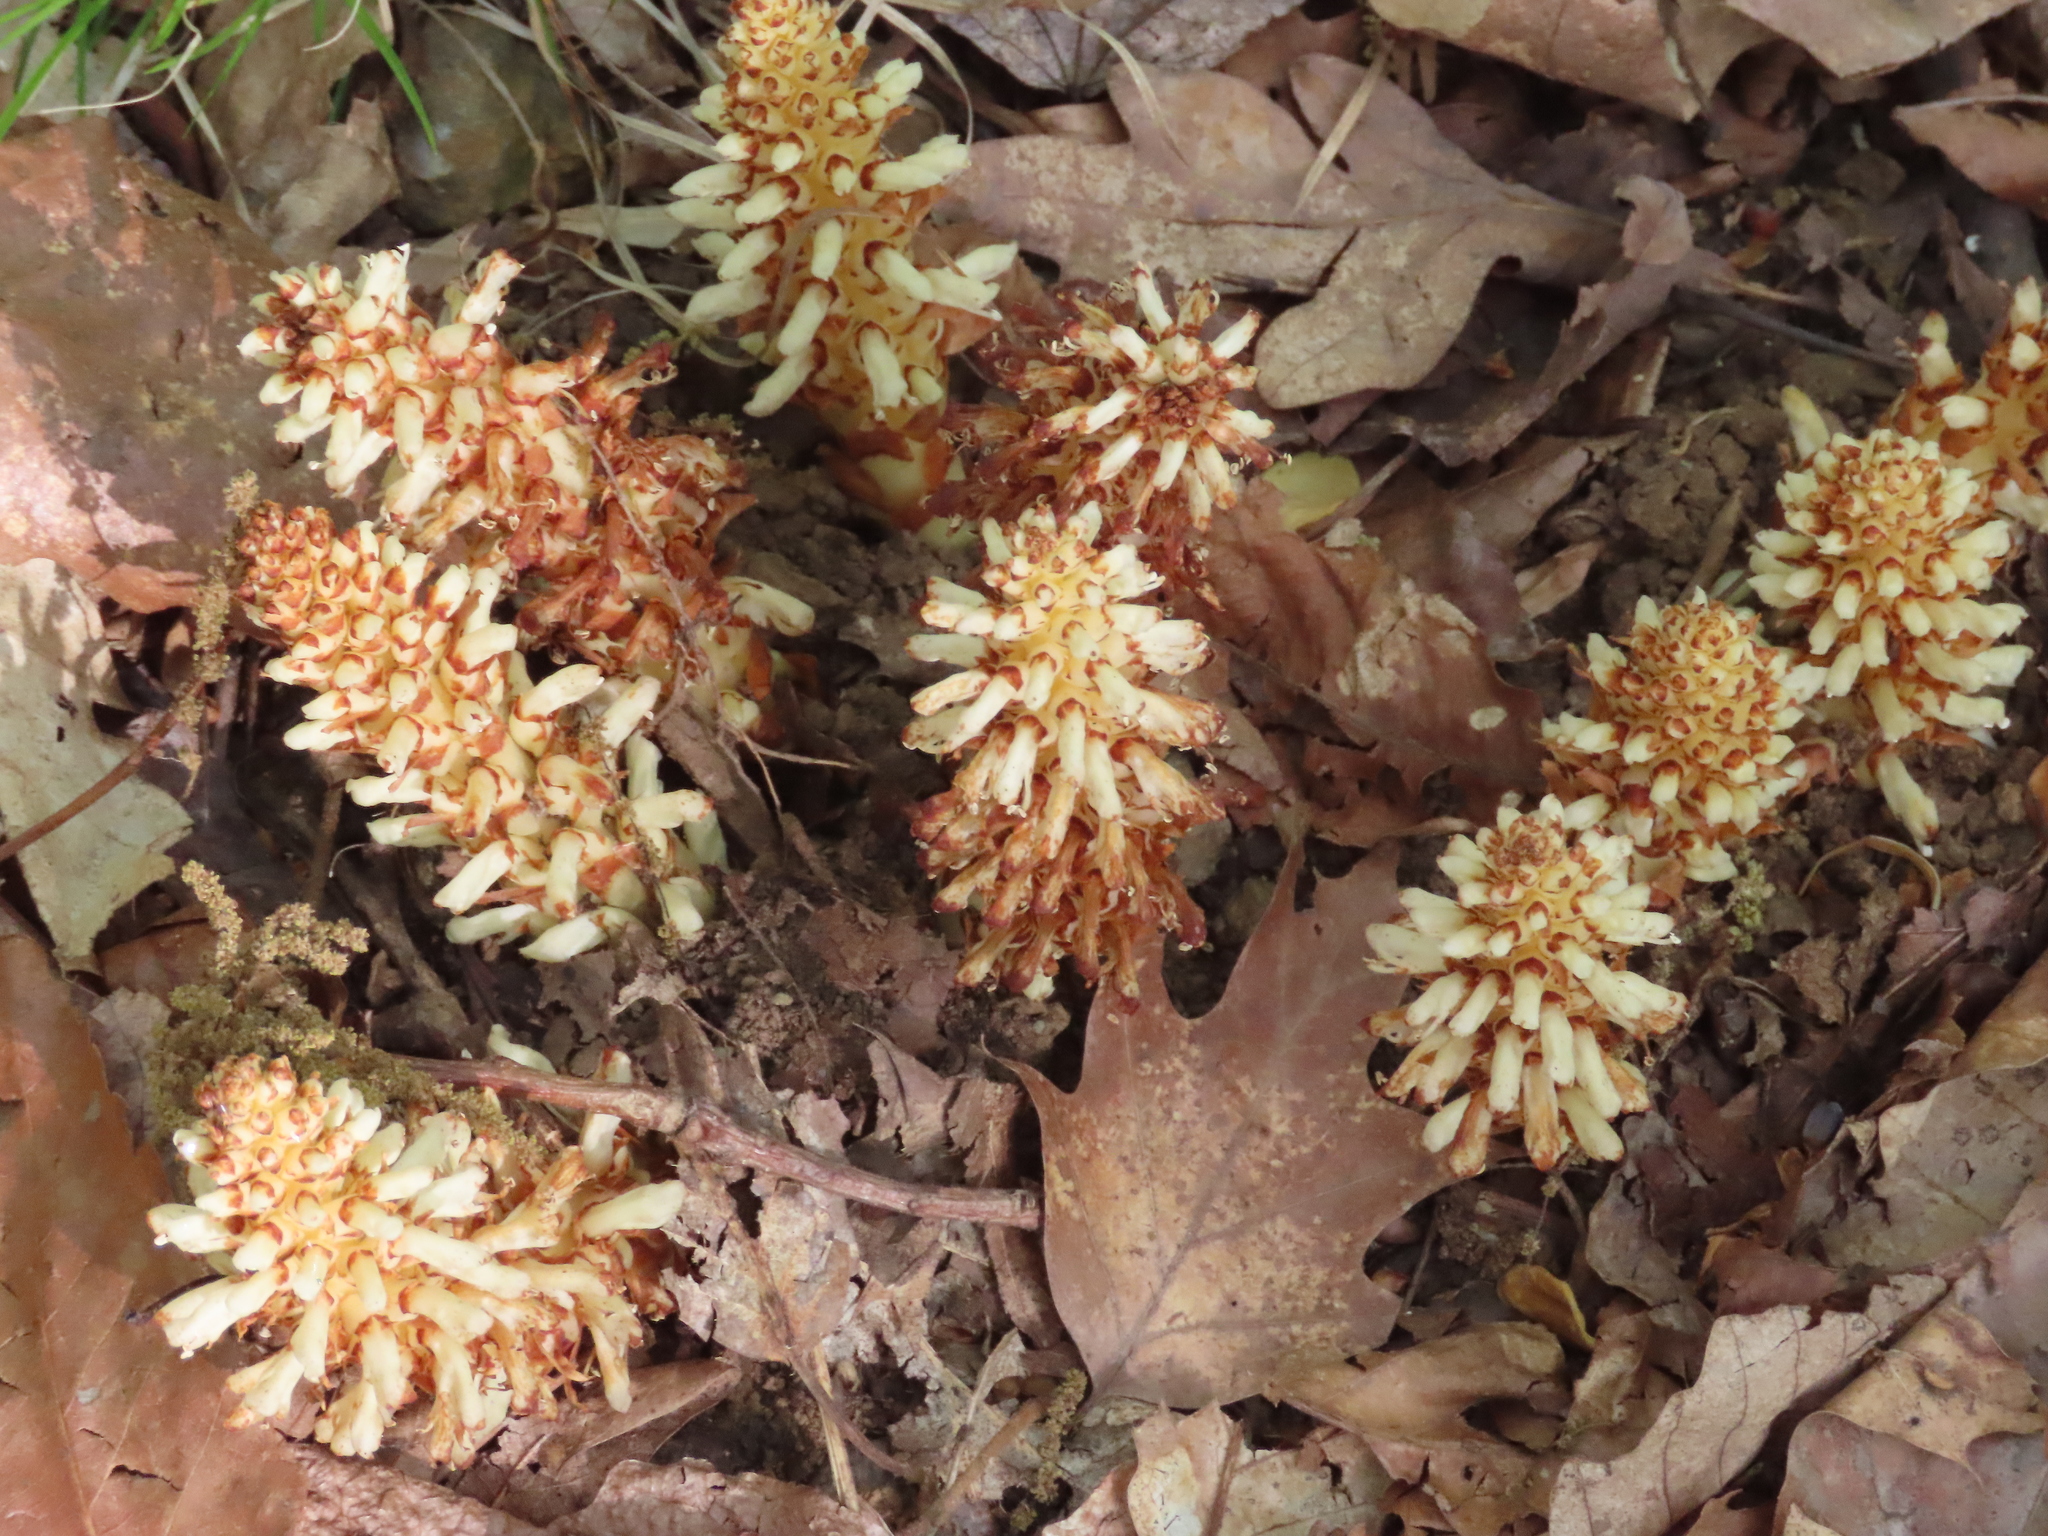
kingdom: Plantae
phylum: Tracheophyta
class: Magnoliopsida
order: Lamiales
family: Orobanchaceae
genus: Conopholis
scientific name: Conopholis americana
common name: American cancer-root
